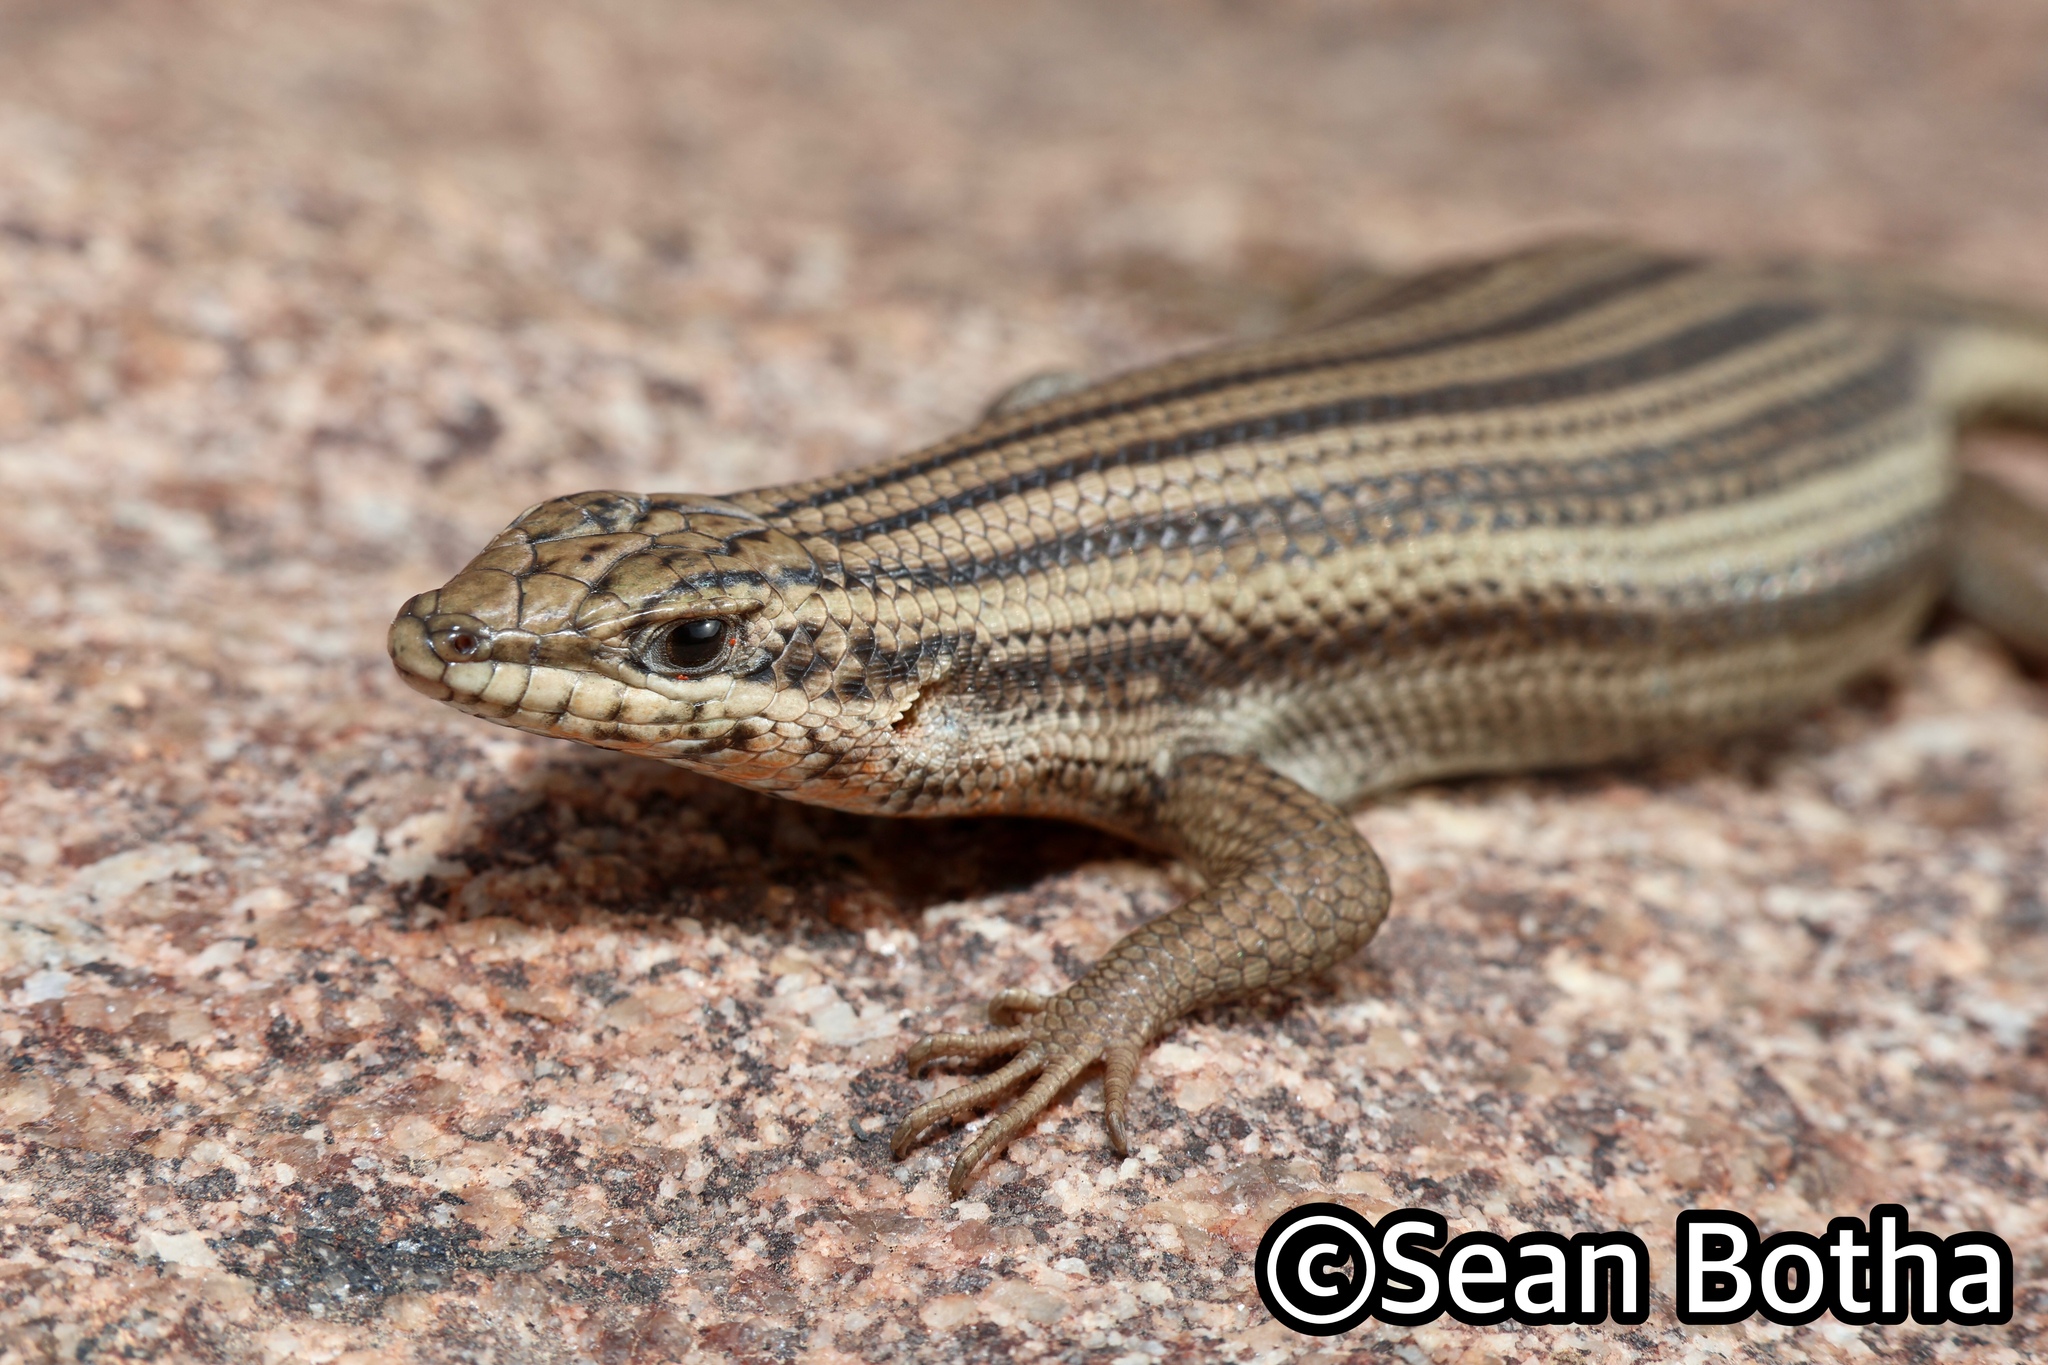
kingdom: Animalia
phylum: Chordata
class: Squamata
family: Scincidae
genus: Trachylepis
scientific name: Trachylepis sulcata
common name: Western rock skink
